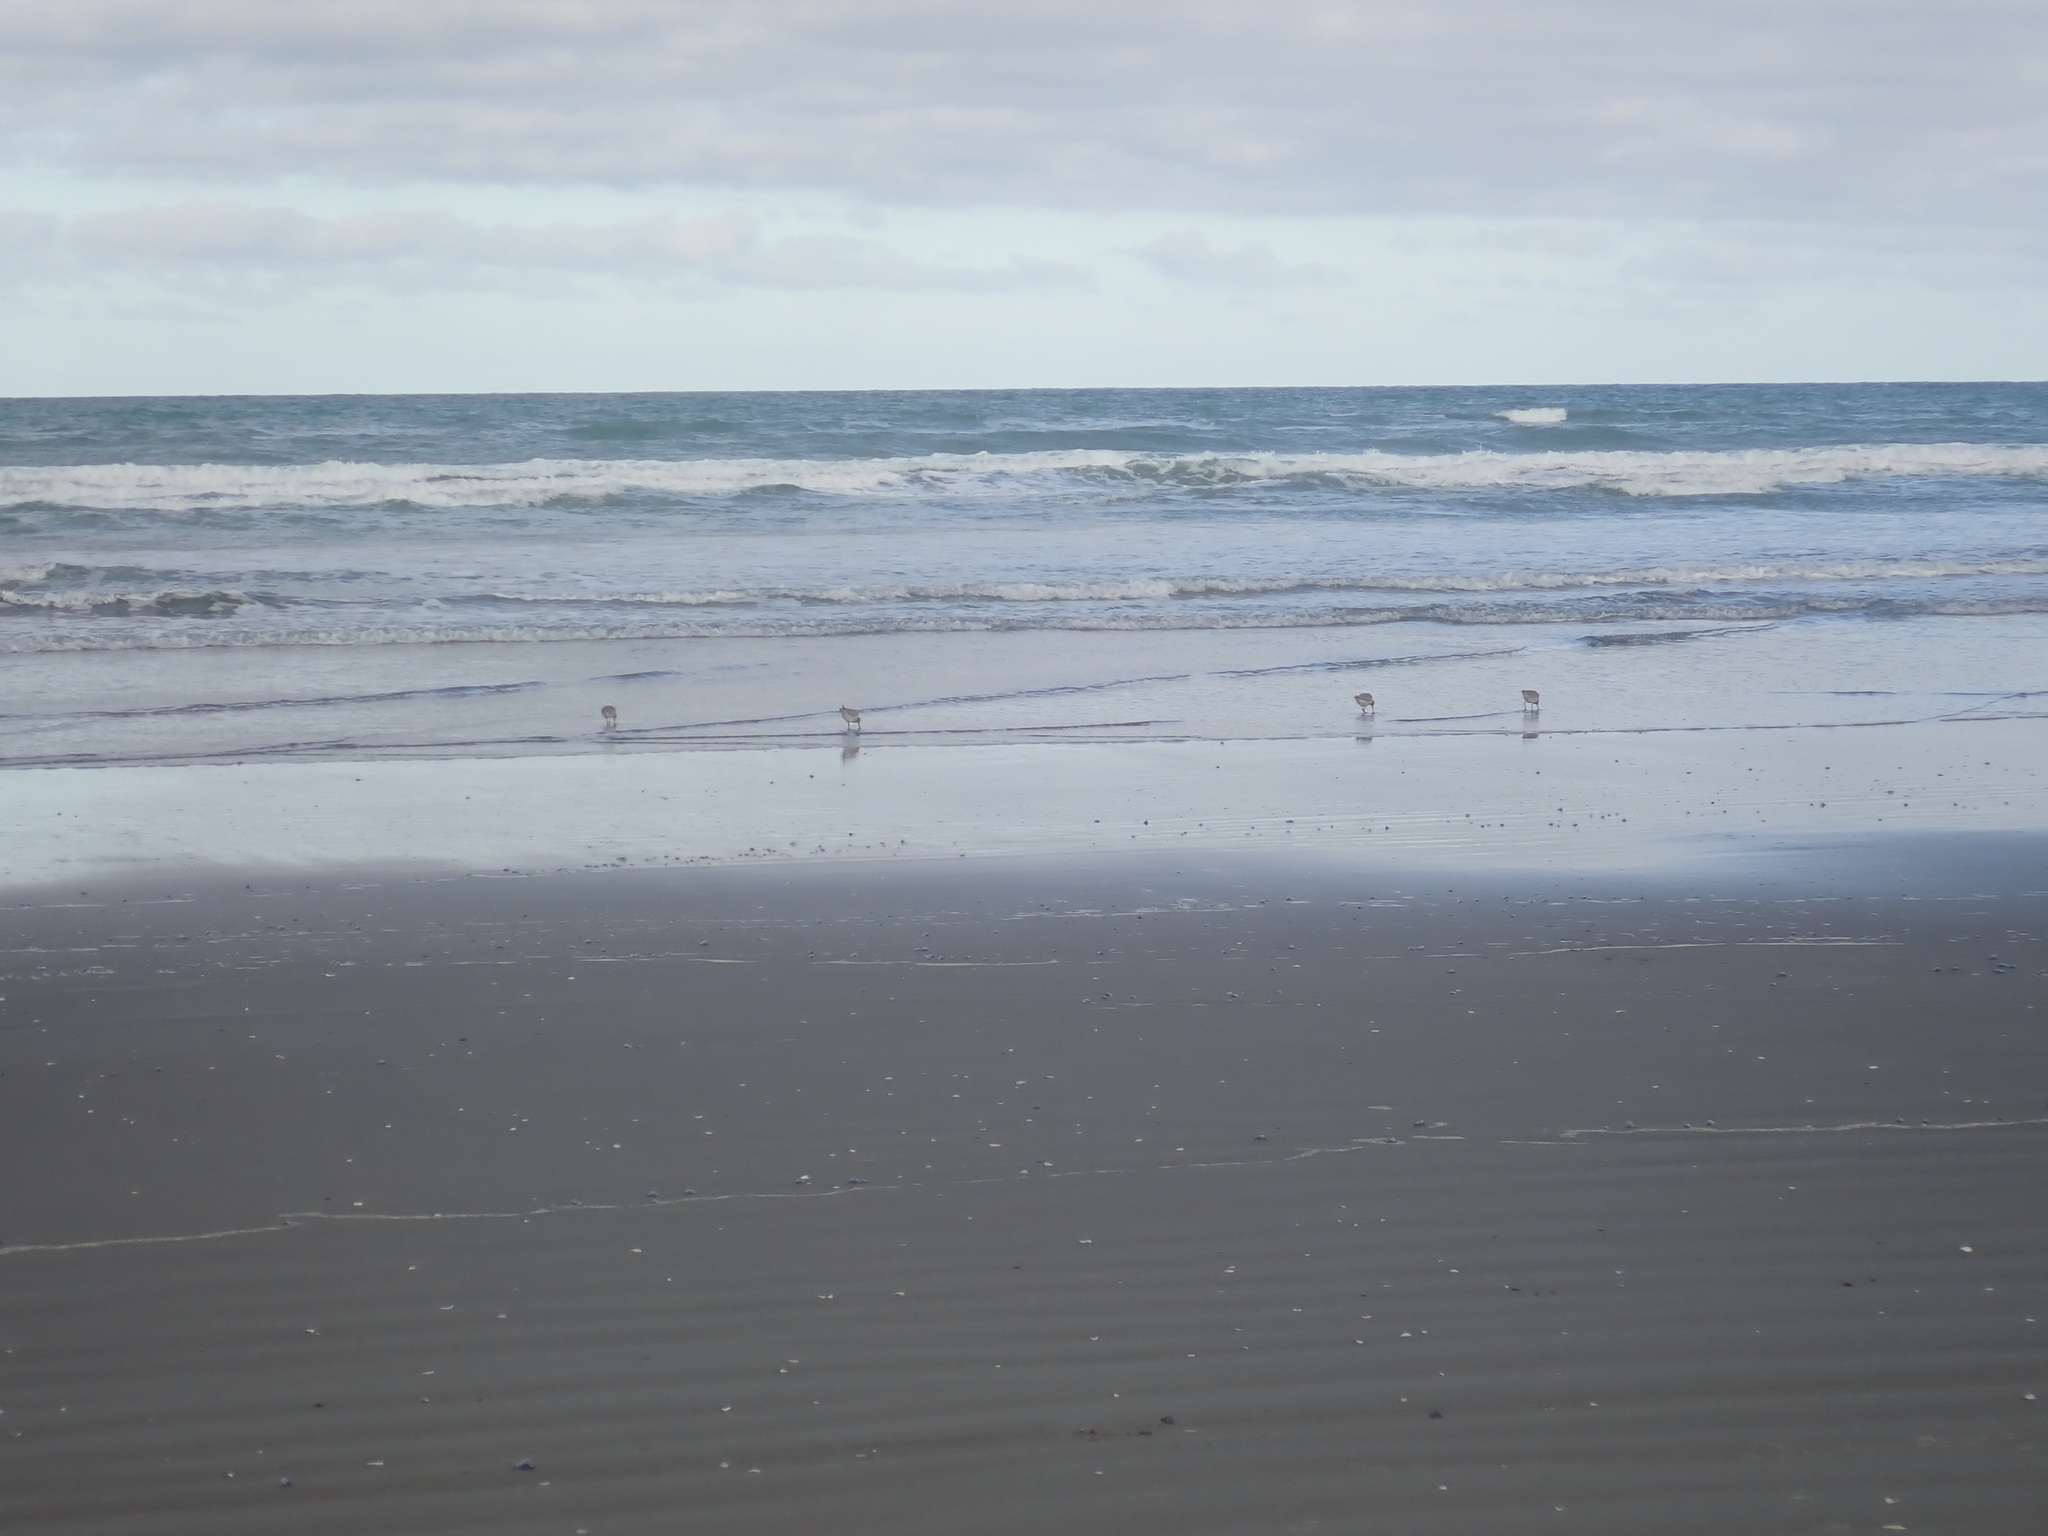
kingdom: Animalia
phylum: Chordata
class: Aves
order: Charadriiformes
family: Scolopacidae
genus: Limosa
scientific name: Limosa lapponica
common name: Bar-tailed godwit
